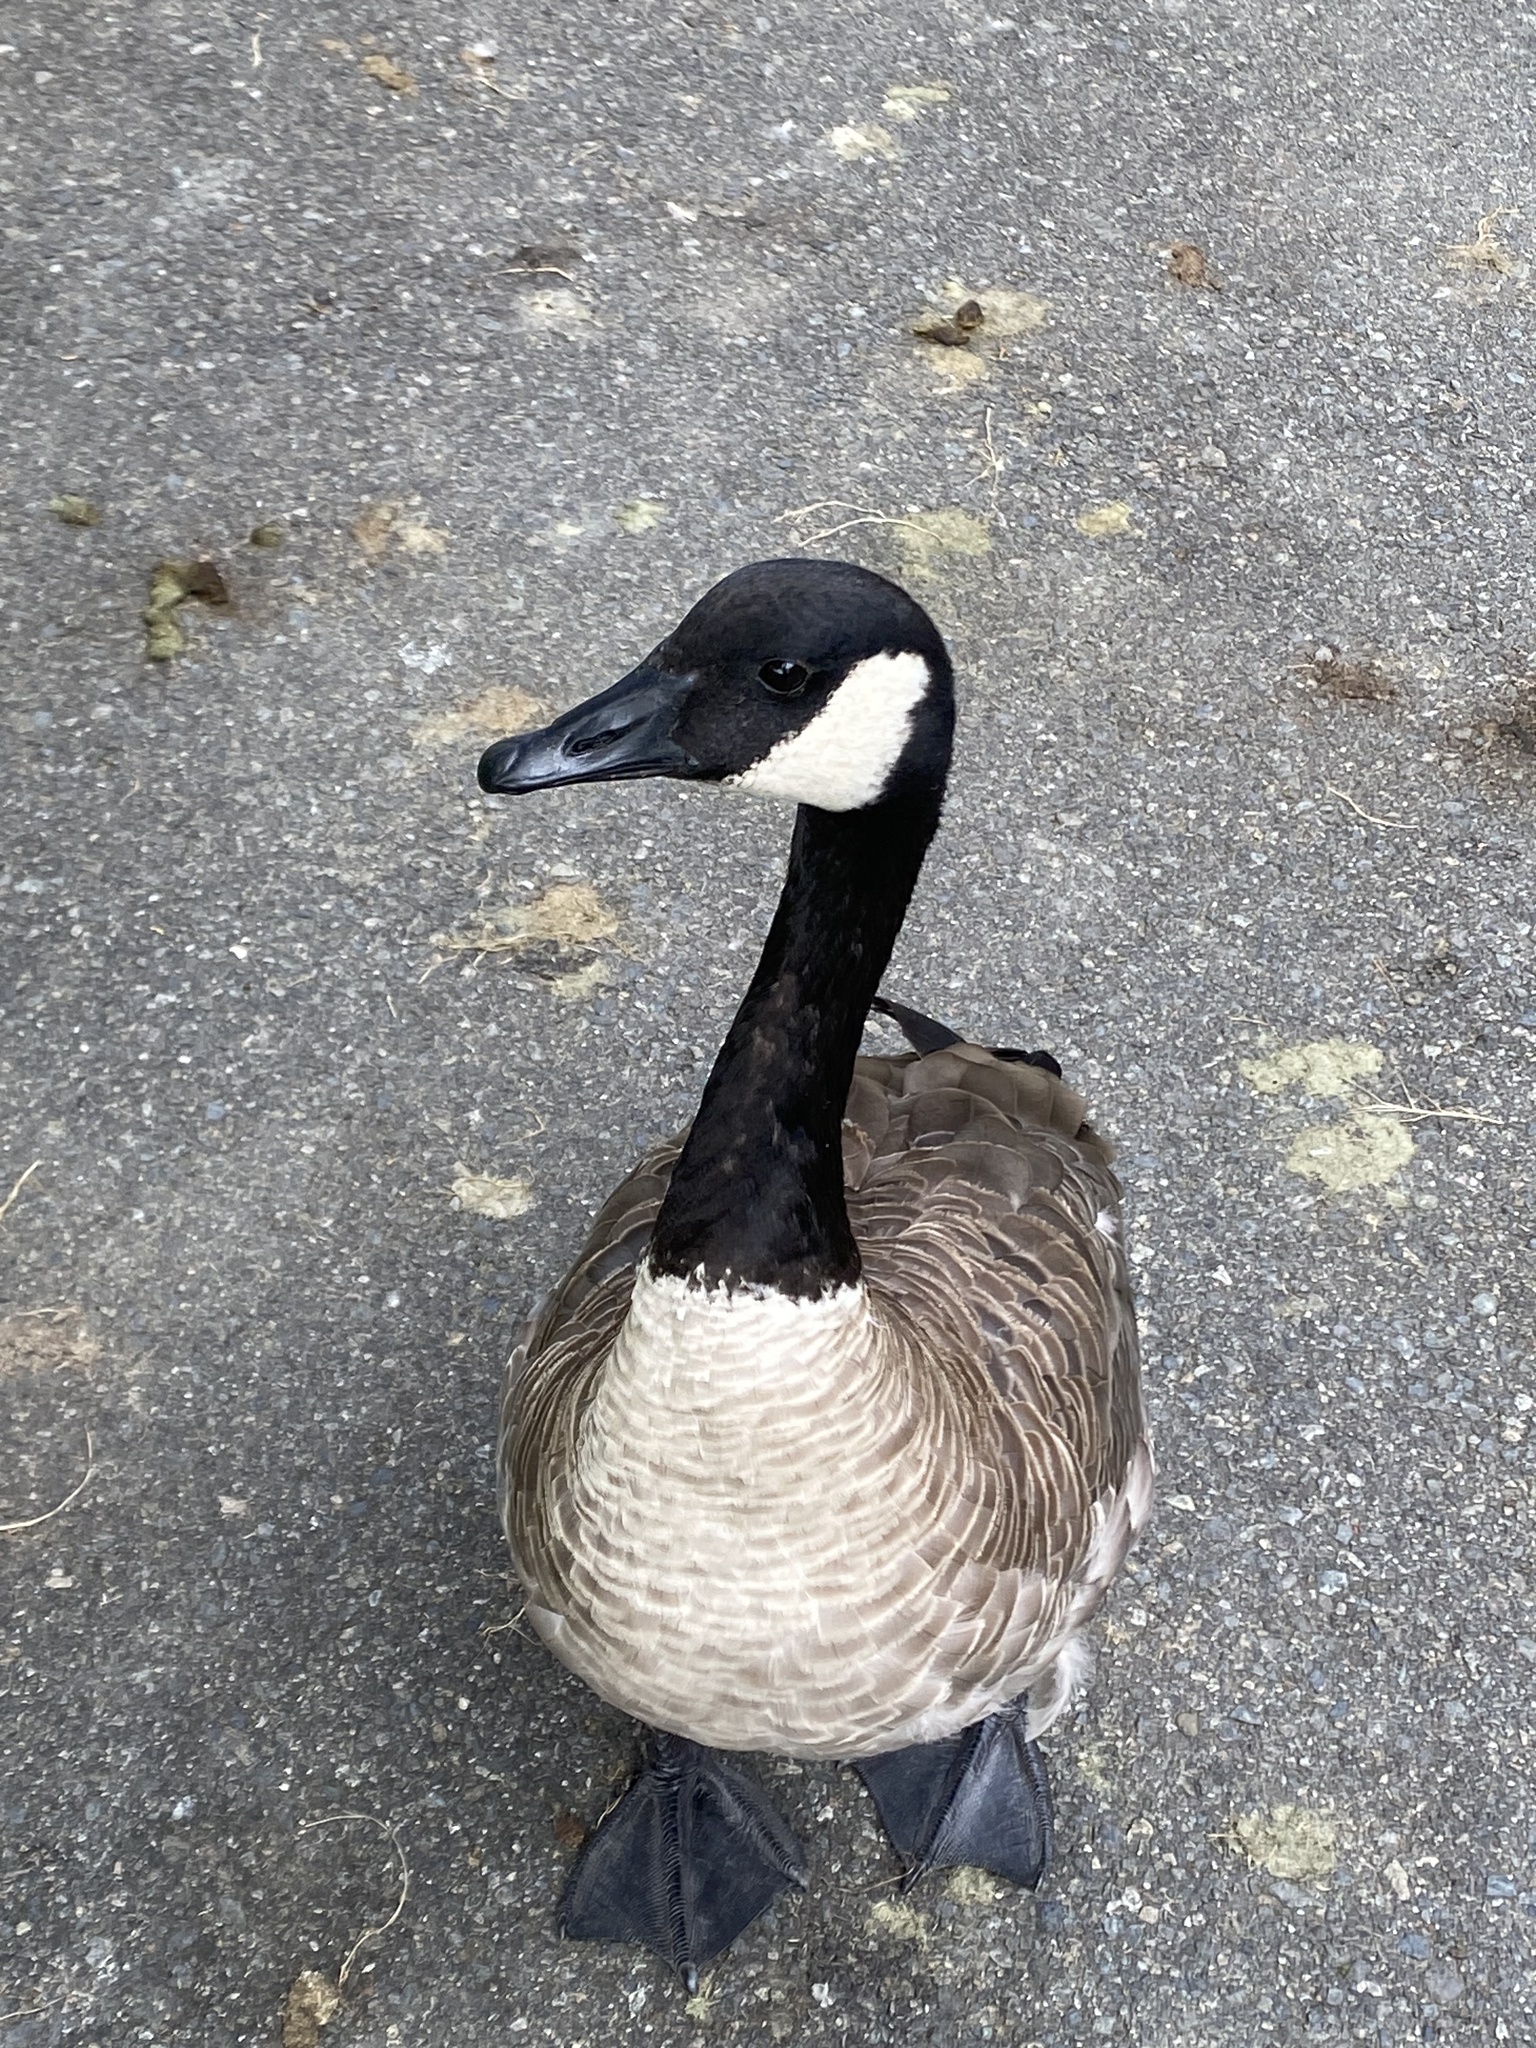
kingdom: Animalia
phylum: Chordata
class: Aves
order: Anseriformes
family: Anatidae
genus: Branta
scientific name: Branta canadensis
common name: Canada goose
